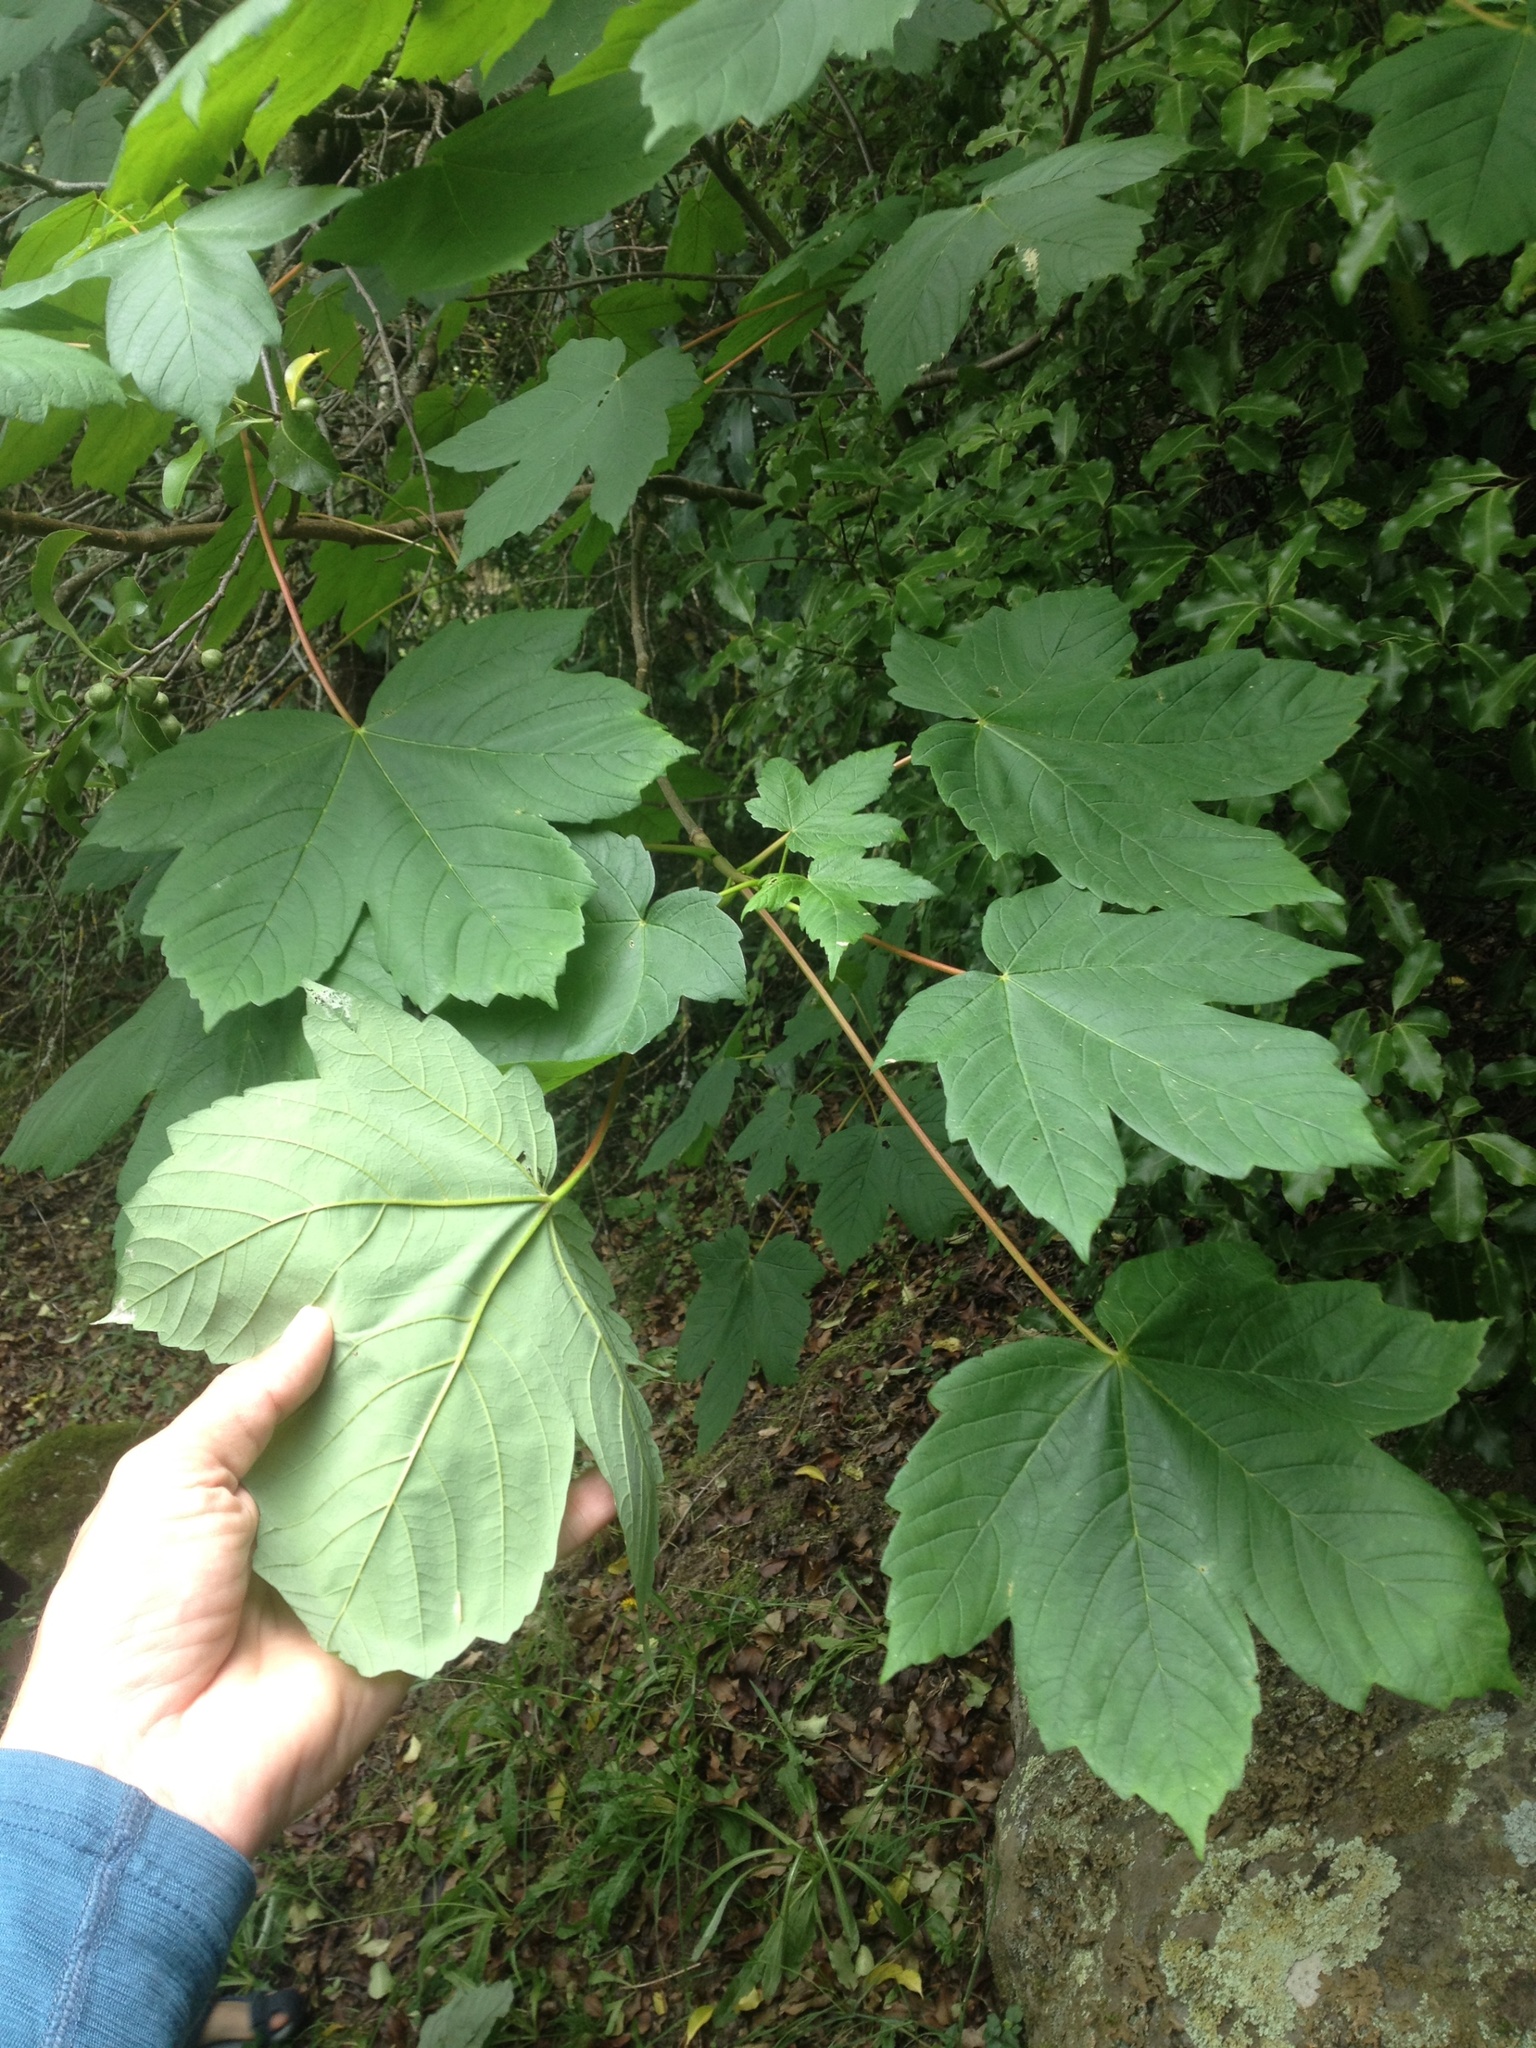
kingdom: Plantae
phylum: Tracheophyta
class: Magnoliopsida
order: Sapindales
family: Sapindaceae
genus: Acer
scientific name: Acer pseudoplatanus
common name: Sycamore
